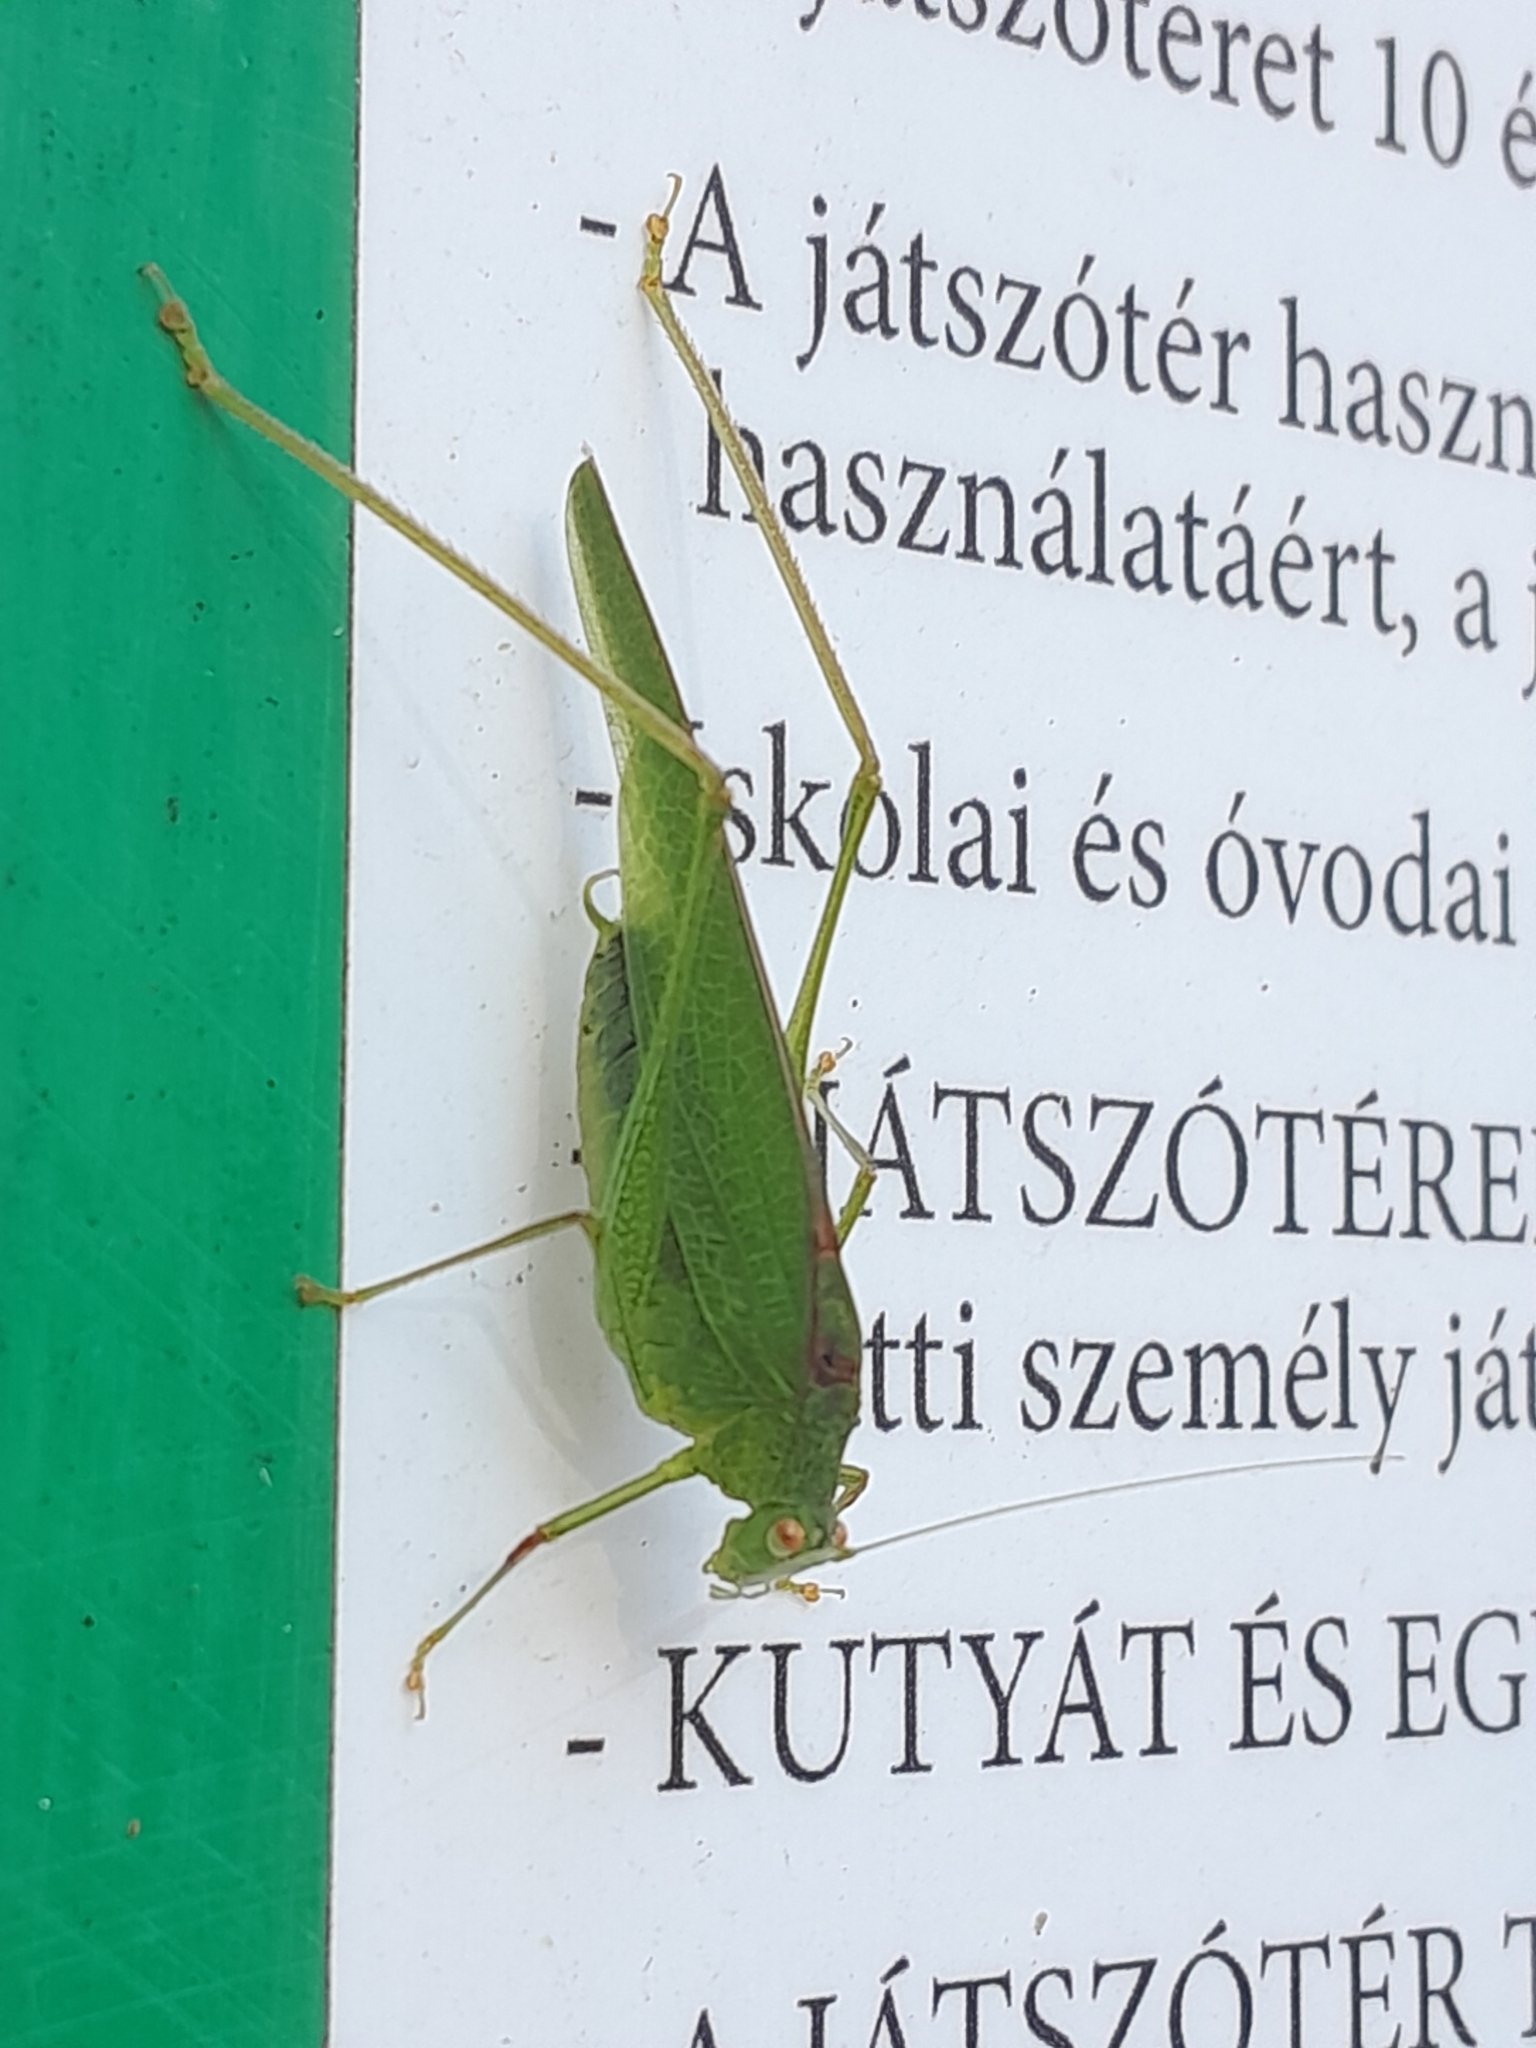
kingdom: Animalia
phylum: Arthropoda
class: Insecta
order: Orthoptera
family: Tettigoniidae
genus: Phaneroptera
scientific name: Phaneroptera nana
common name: Southern sickle bush-cricket
